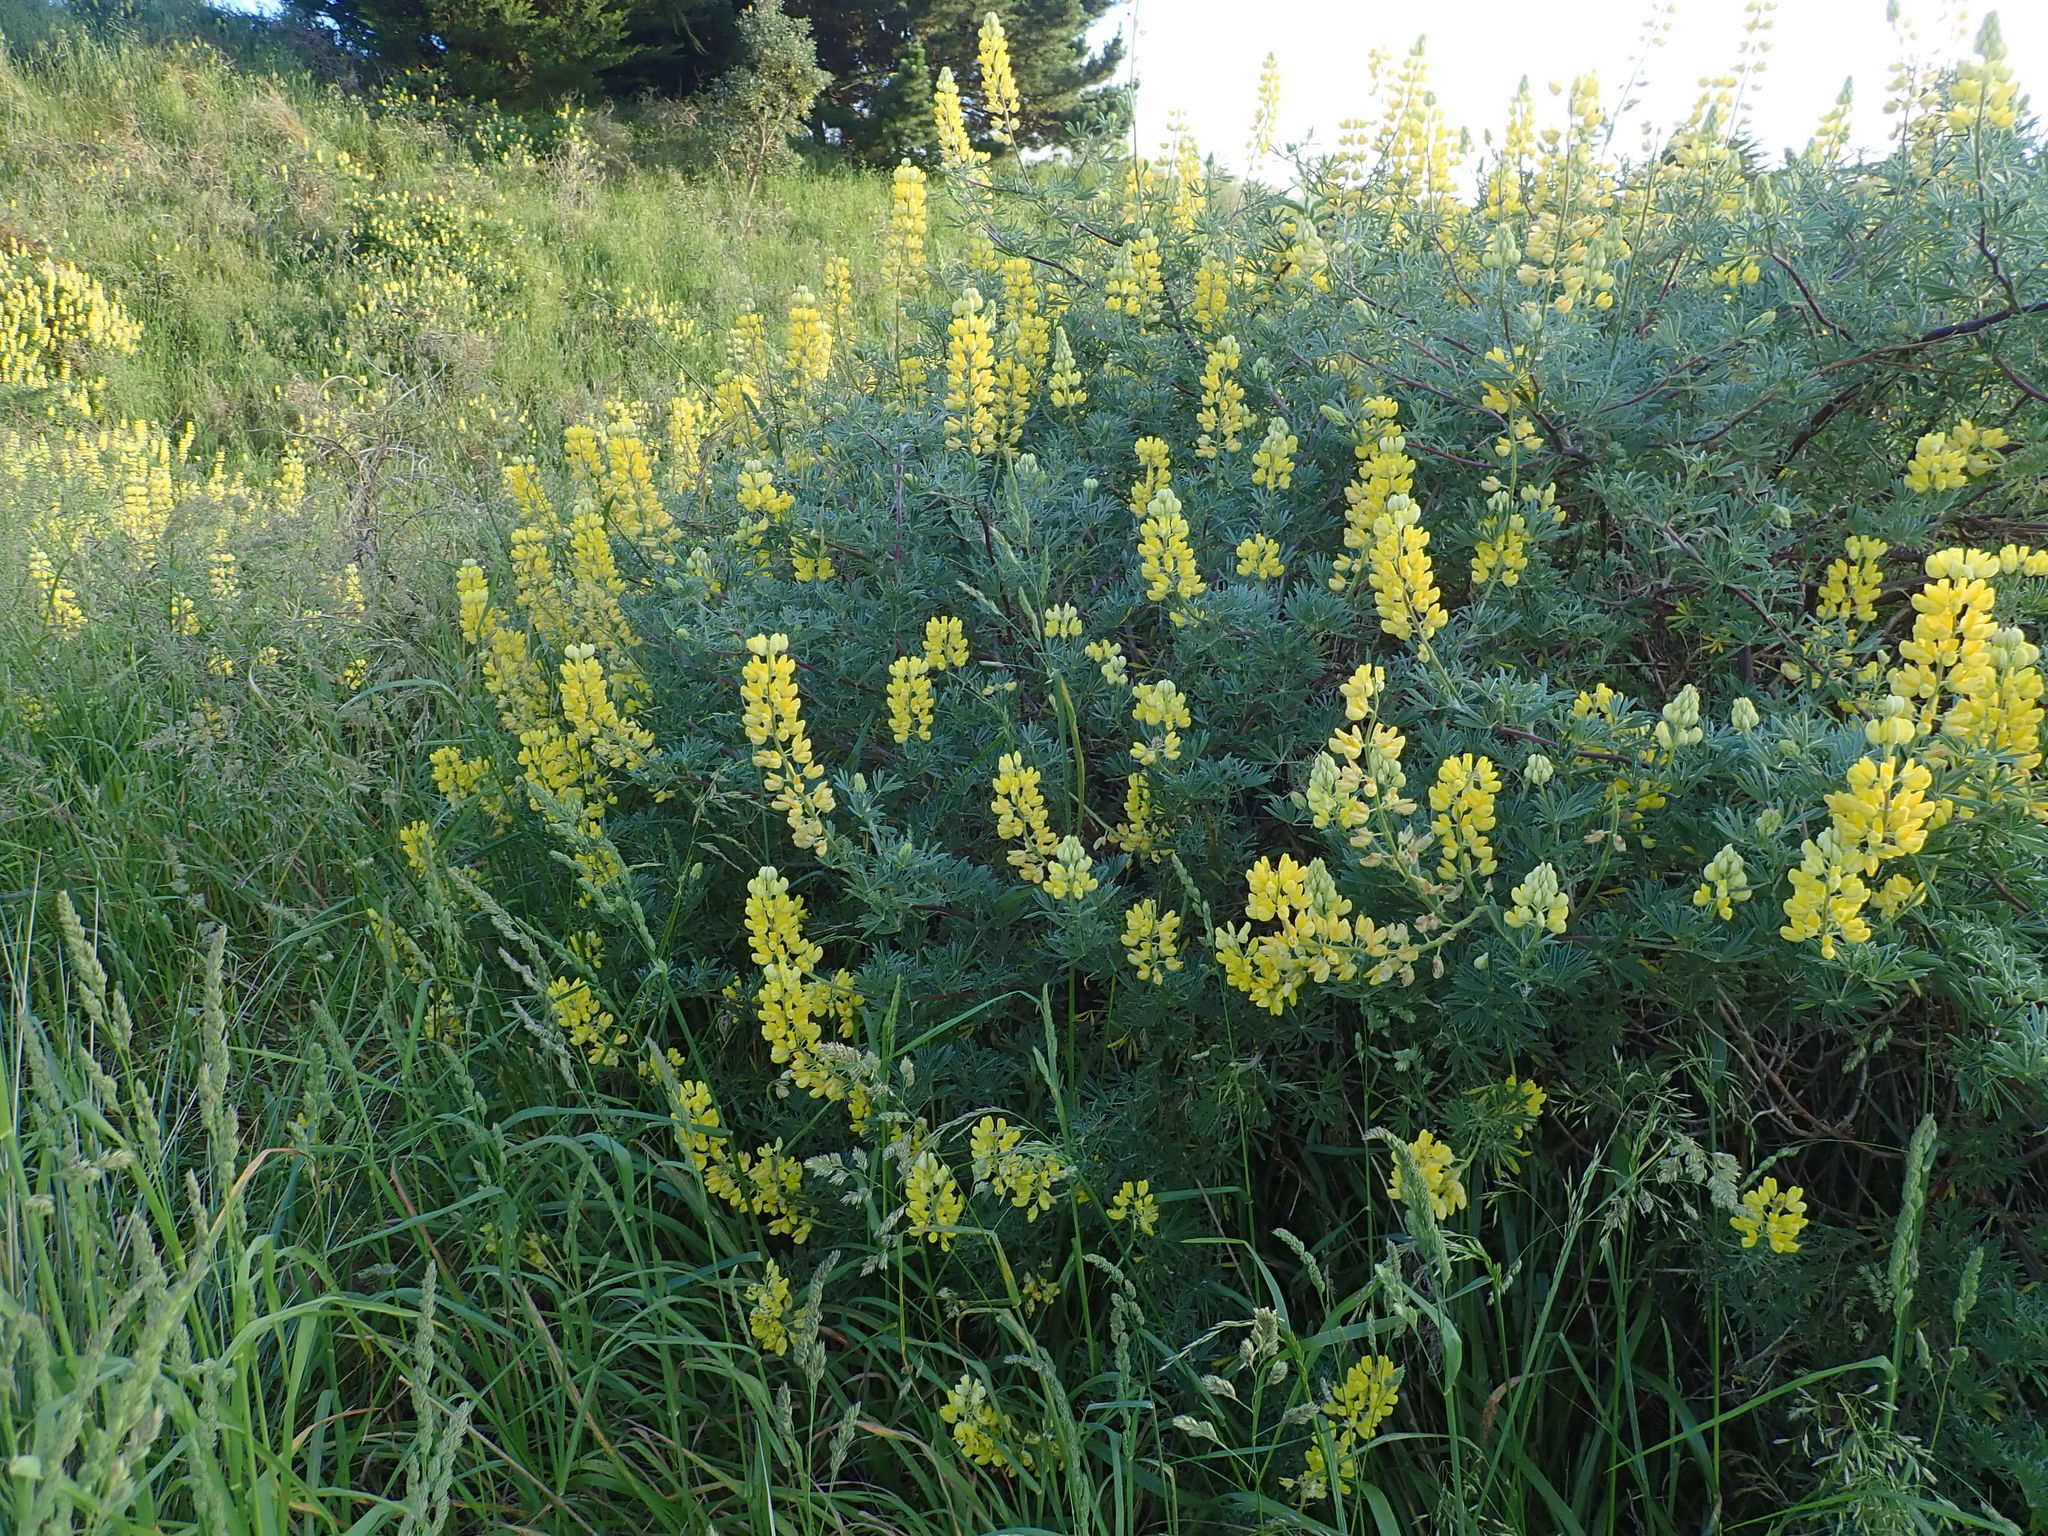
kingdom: Plantae
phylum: Tracheophyta
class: Magnoliopsida
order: Fabales
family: Fabaceae
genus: Lupinus
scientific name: Lupinus arboreus
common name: Yellow bush lupine
